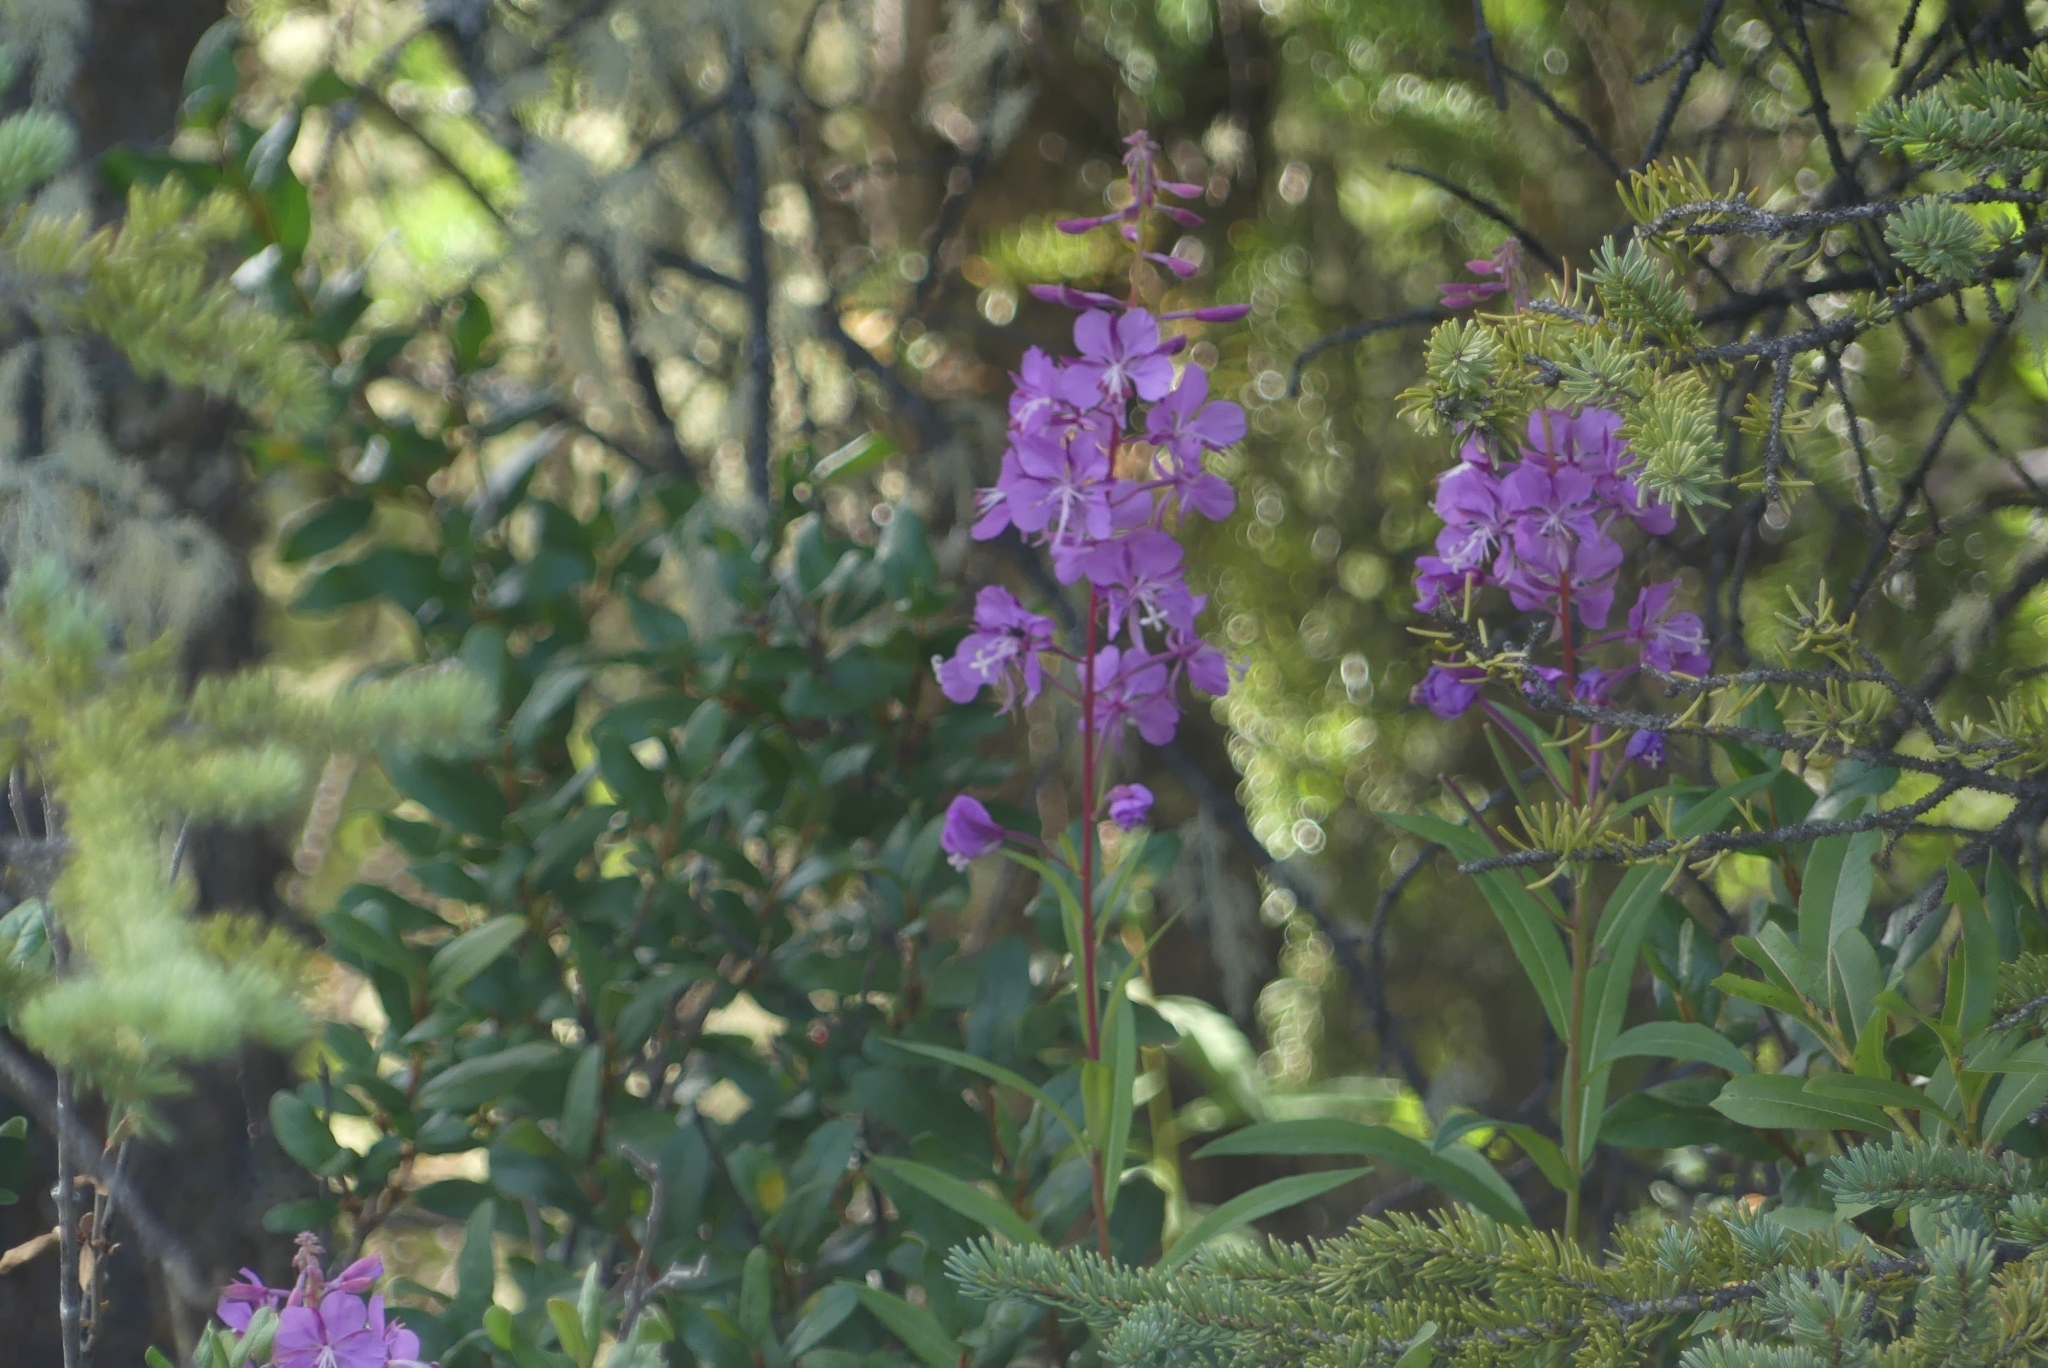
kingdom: Plantae
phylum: Tracheophyta
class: Magnoliopsida
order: Myrtales
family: Onagraceae
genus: Chamaenerion
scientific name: Chamaenerion angustifolium
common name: Fireweed
